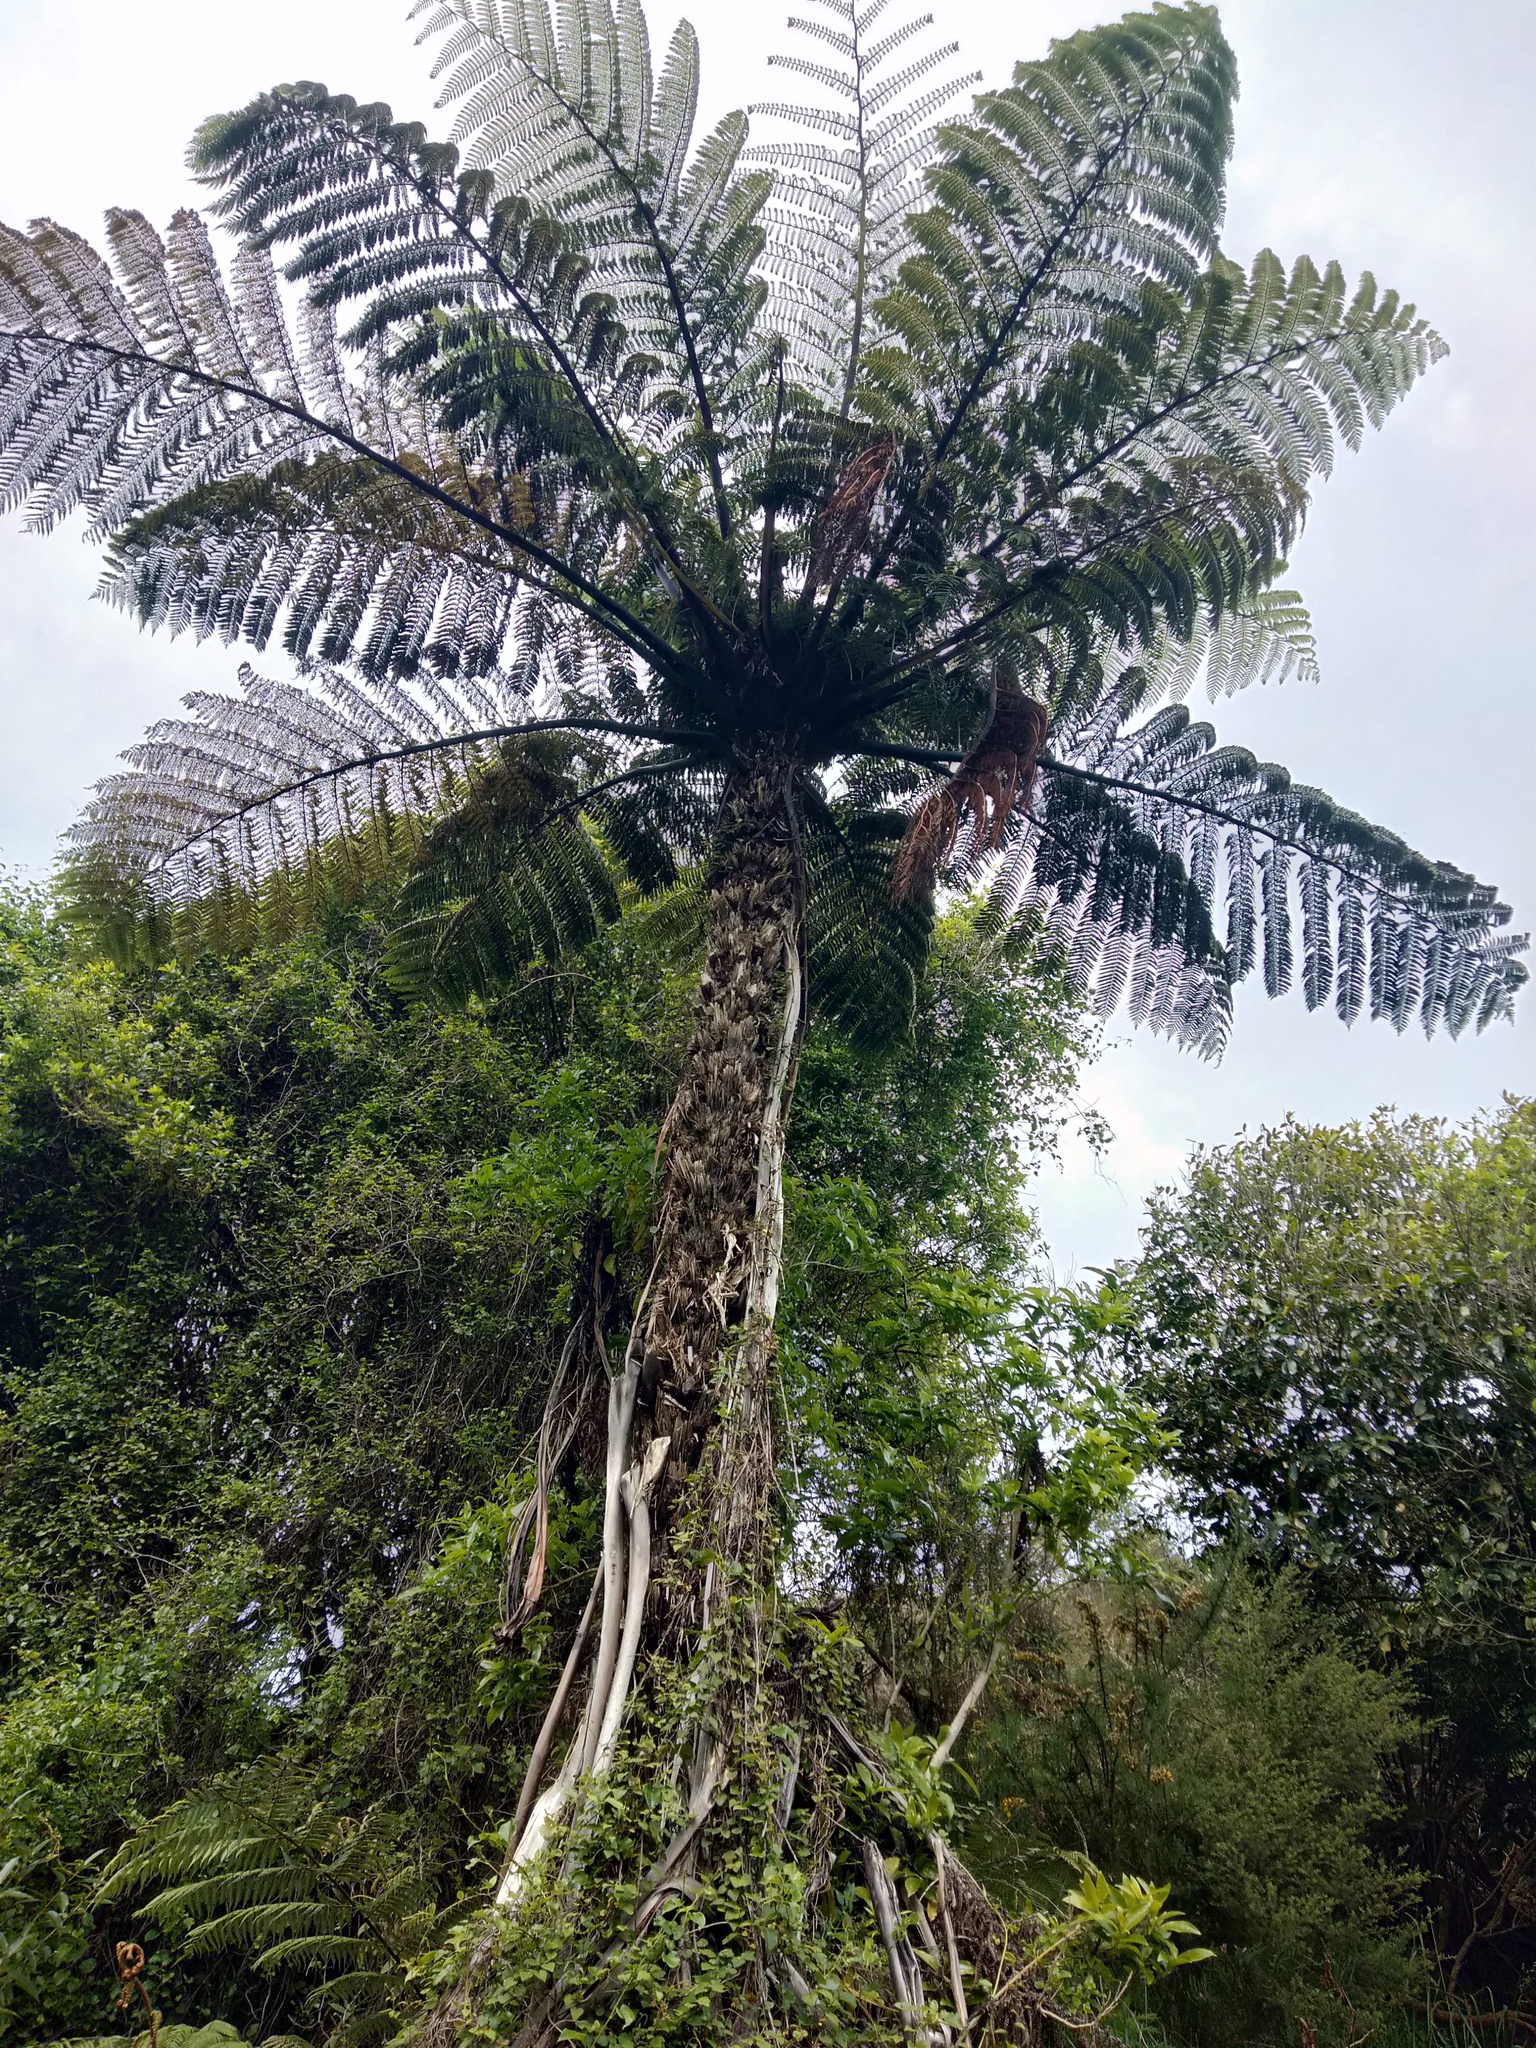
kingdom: Plantae
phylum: Tracheophyta
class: Polypodiopsida
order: Cyatheales
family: Cyatheaceae
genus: Sphaeropteris
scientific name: Sphaeropteris medullaris
